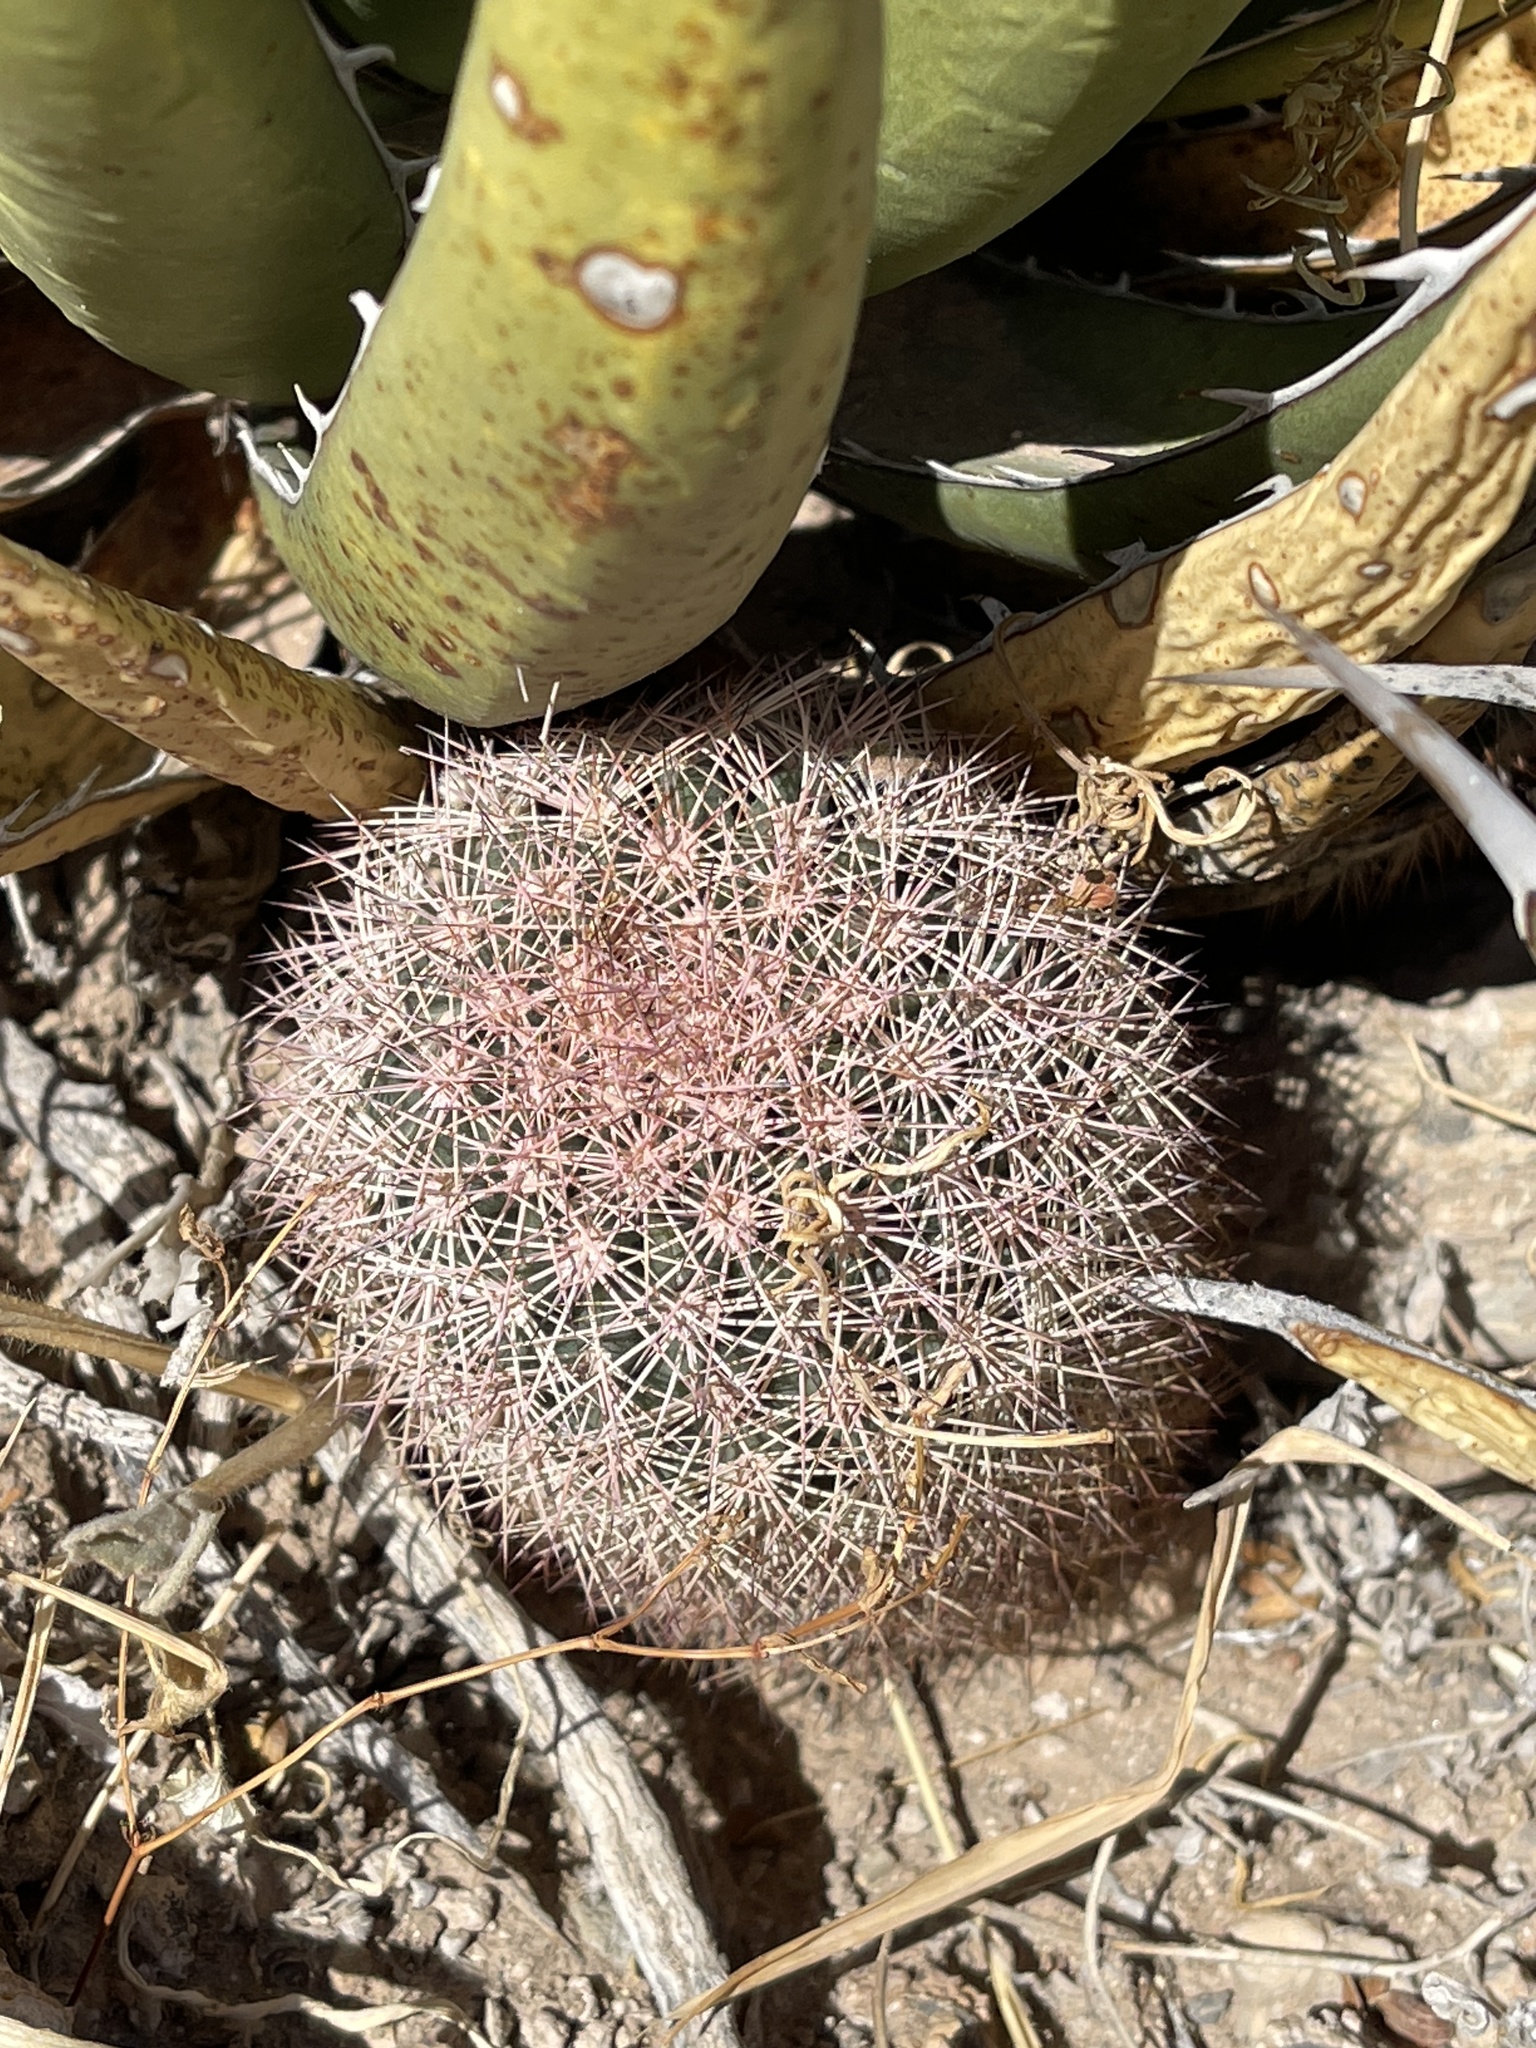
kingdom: Plantae
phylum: Tracheophyta
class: Magnoliopsida
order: Caryophyllales
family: Cactaceae
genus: Echinocereus
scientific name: Echinocereus dasyacanthus
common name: Spiny hedgehog cactus
